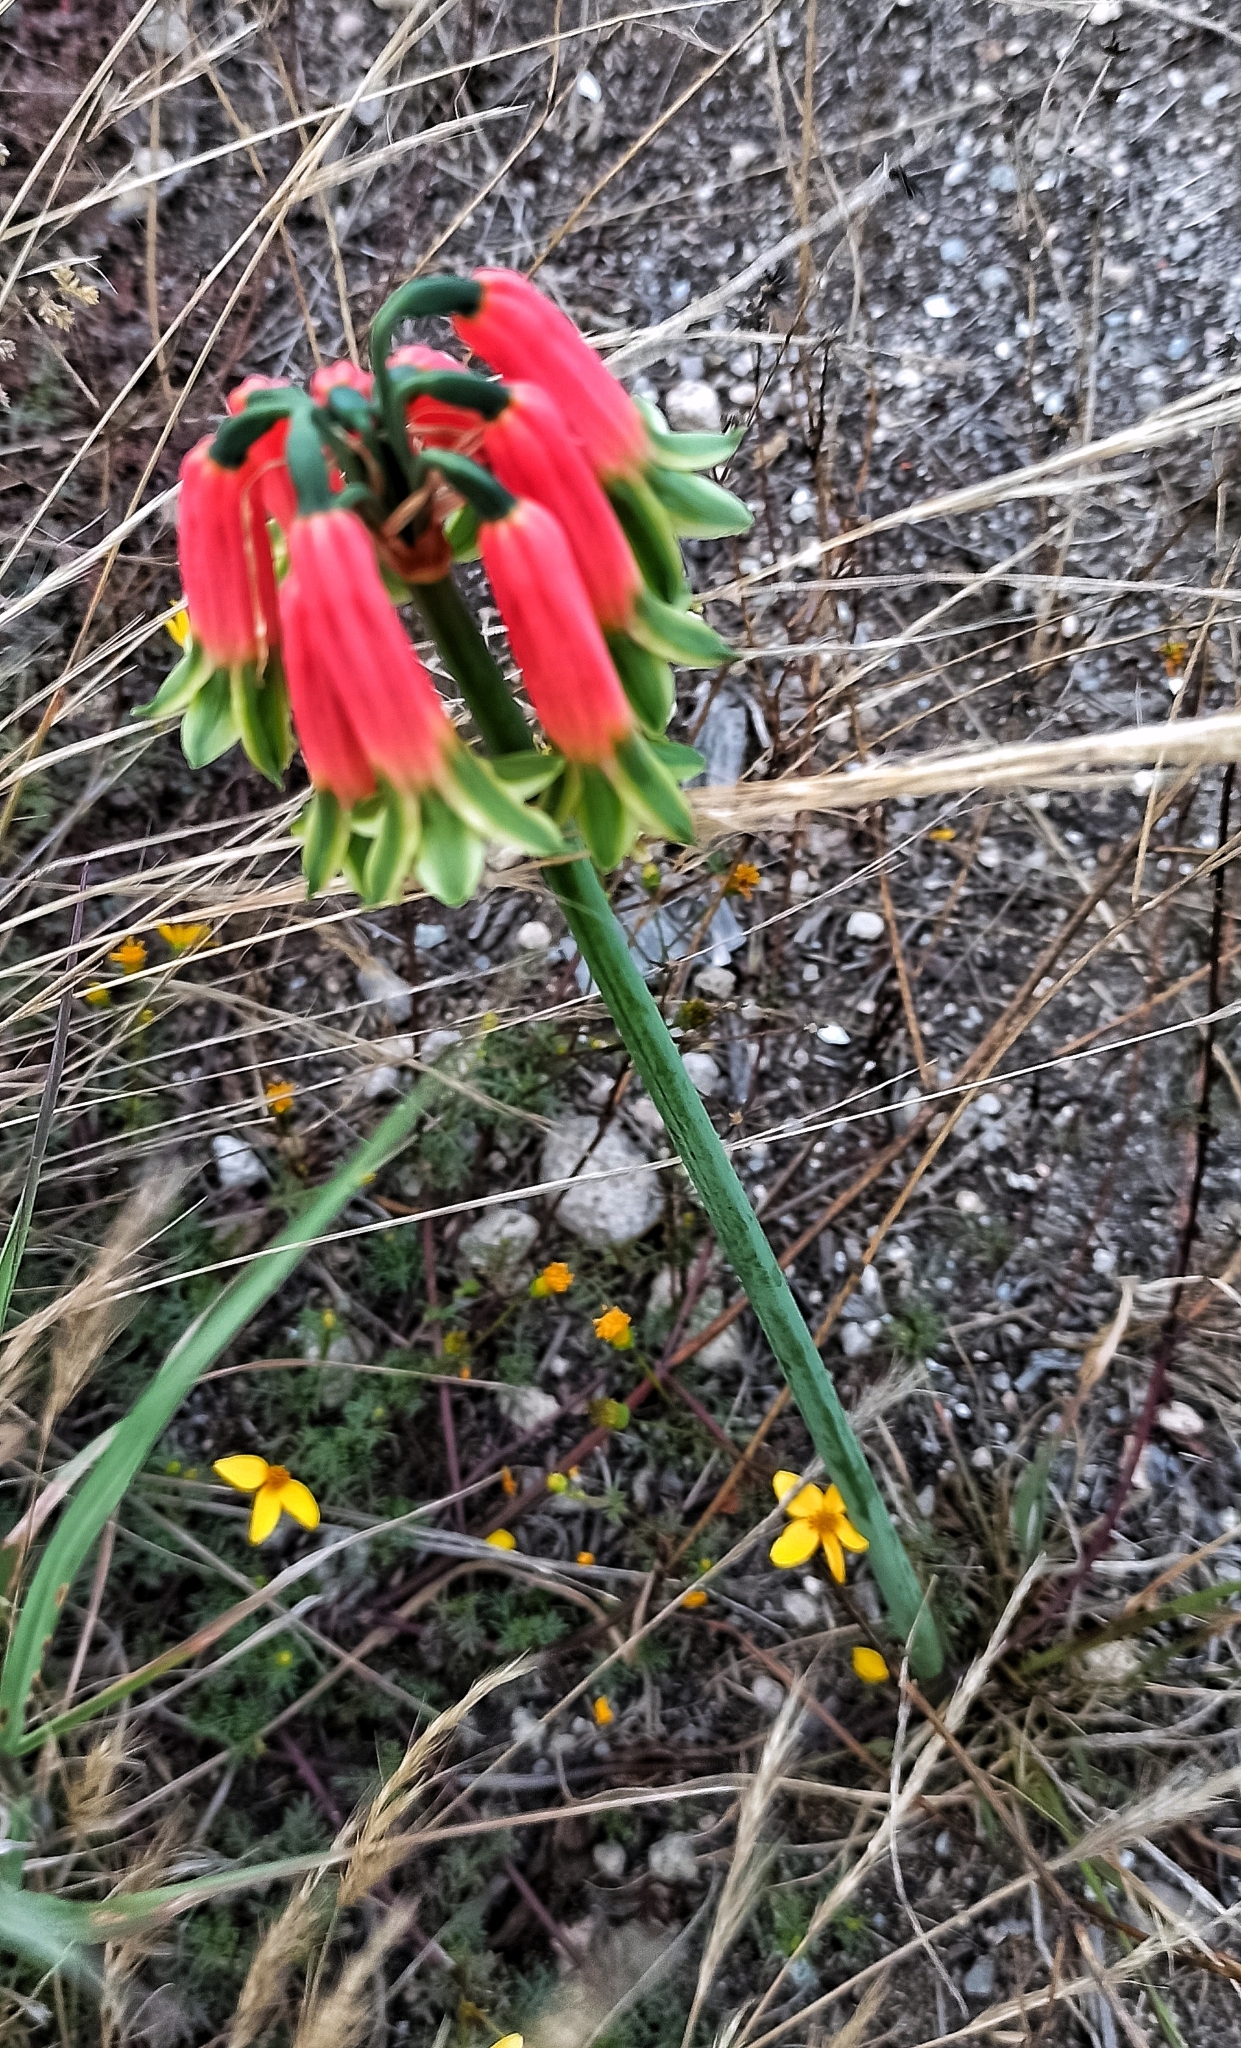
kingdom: Plantae
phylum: Tracheophyta
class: Liliopsida
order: Asparagales
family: Amaryllidaceae
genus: Phaedranassa
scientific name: Phaedranassa dubia
